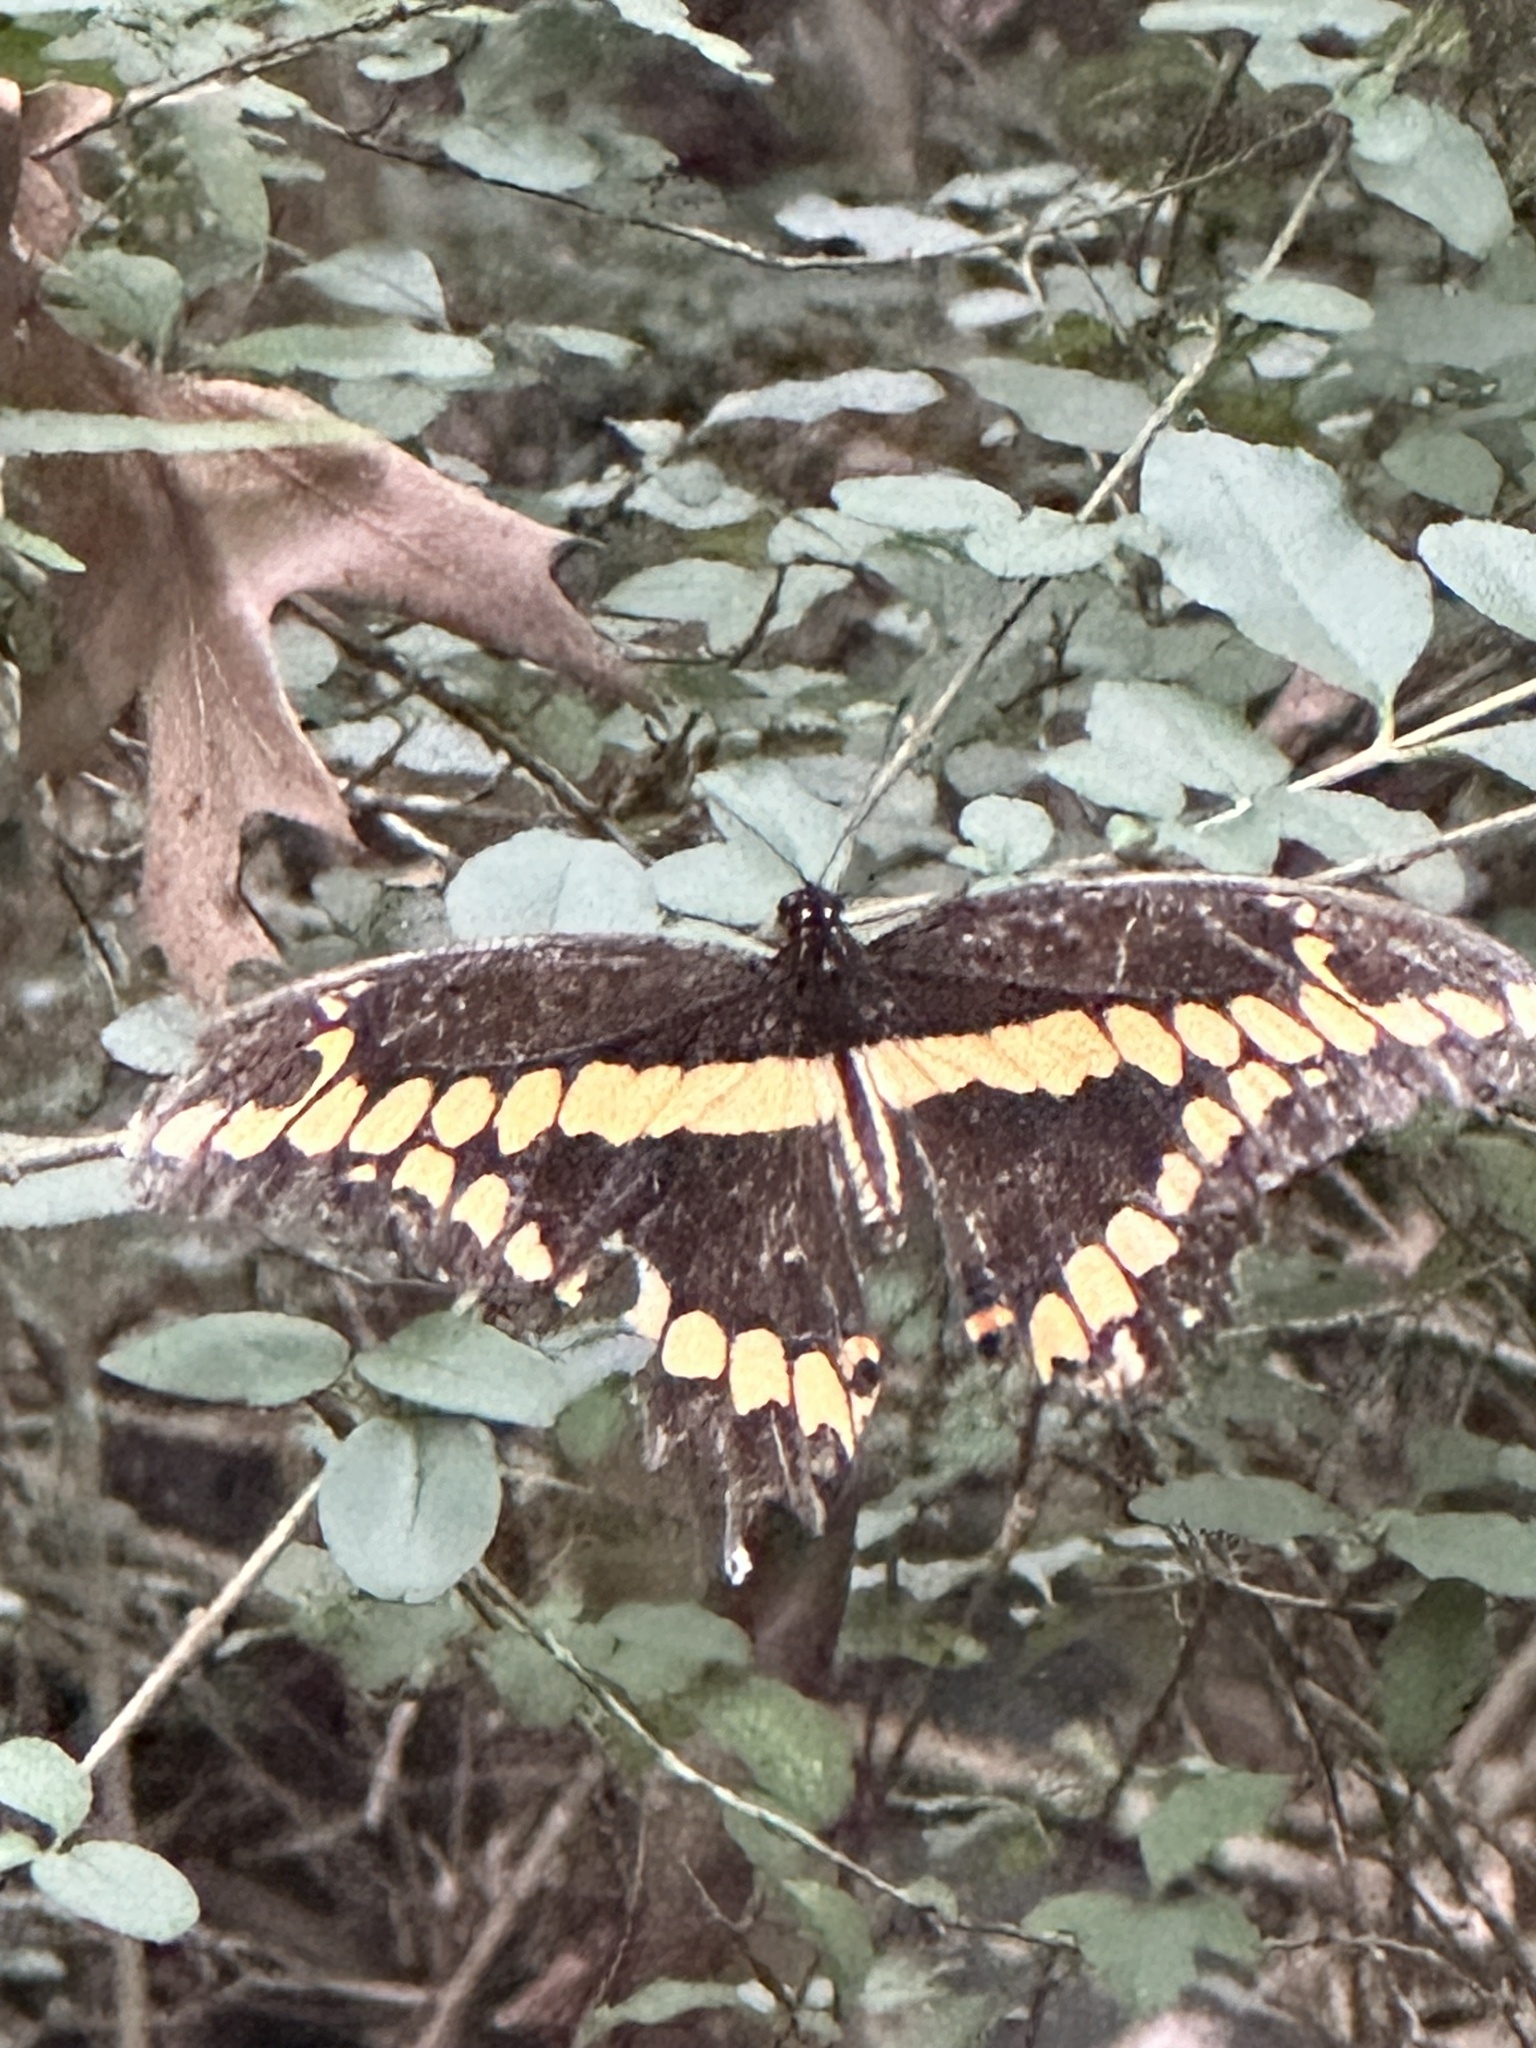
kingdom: Animalia
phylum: Arthropoda
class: Insecta
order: Lepidoptera
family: Papilionidae
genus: Papilio
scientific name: Papilio cresphontes
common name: Giant swallowtail
